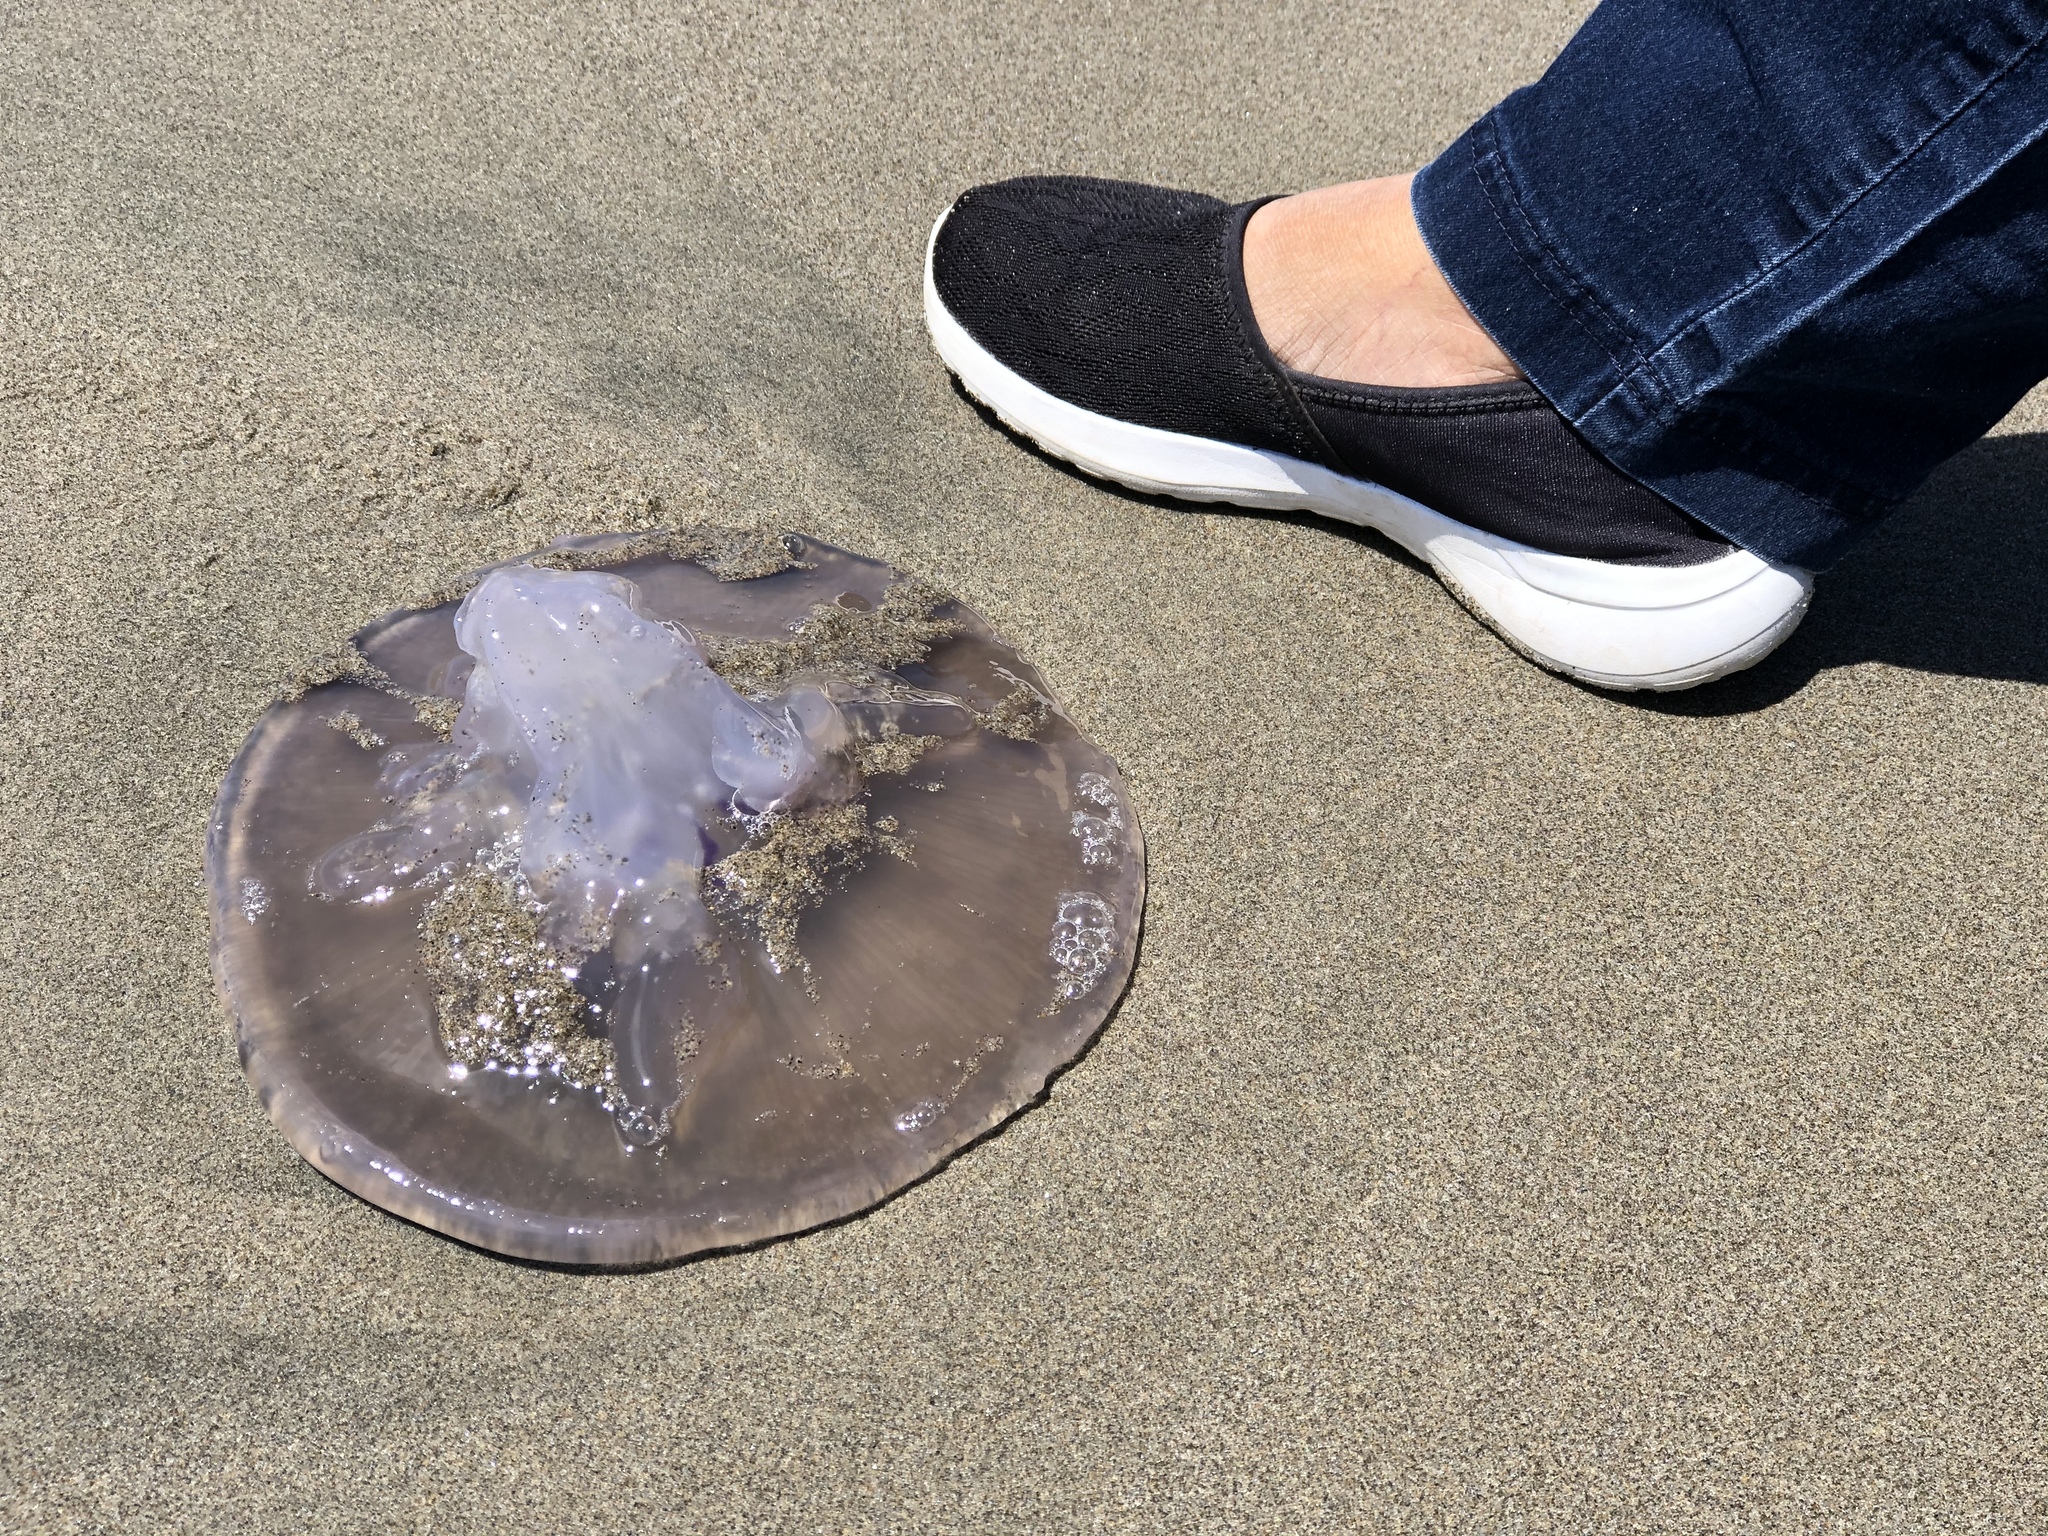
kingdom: Animalia
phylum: Cnidaria
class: Scyphozoa
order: Semaeostomeae
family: Ulmaridae
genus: Aurelia
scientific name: Aurelia labiata
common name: Pacific moon jelly
